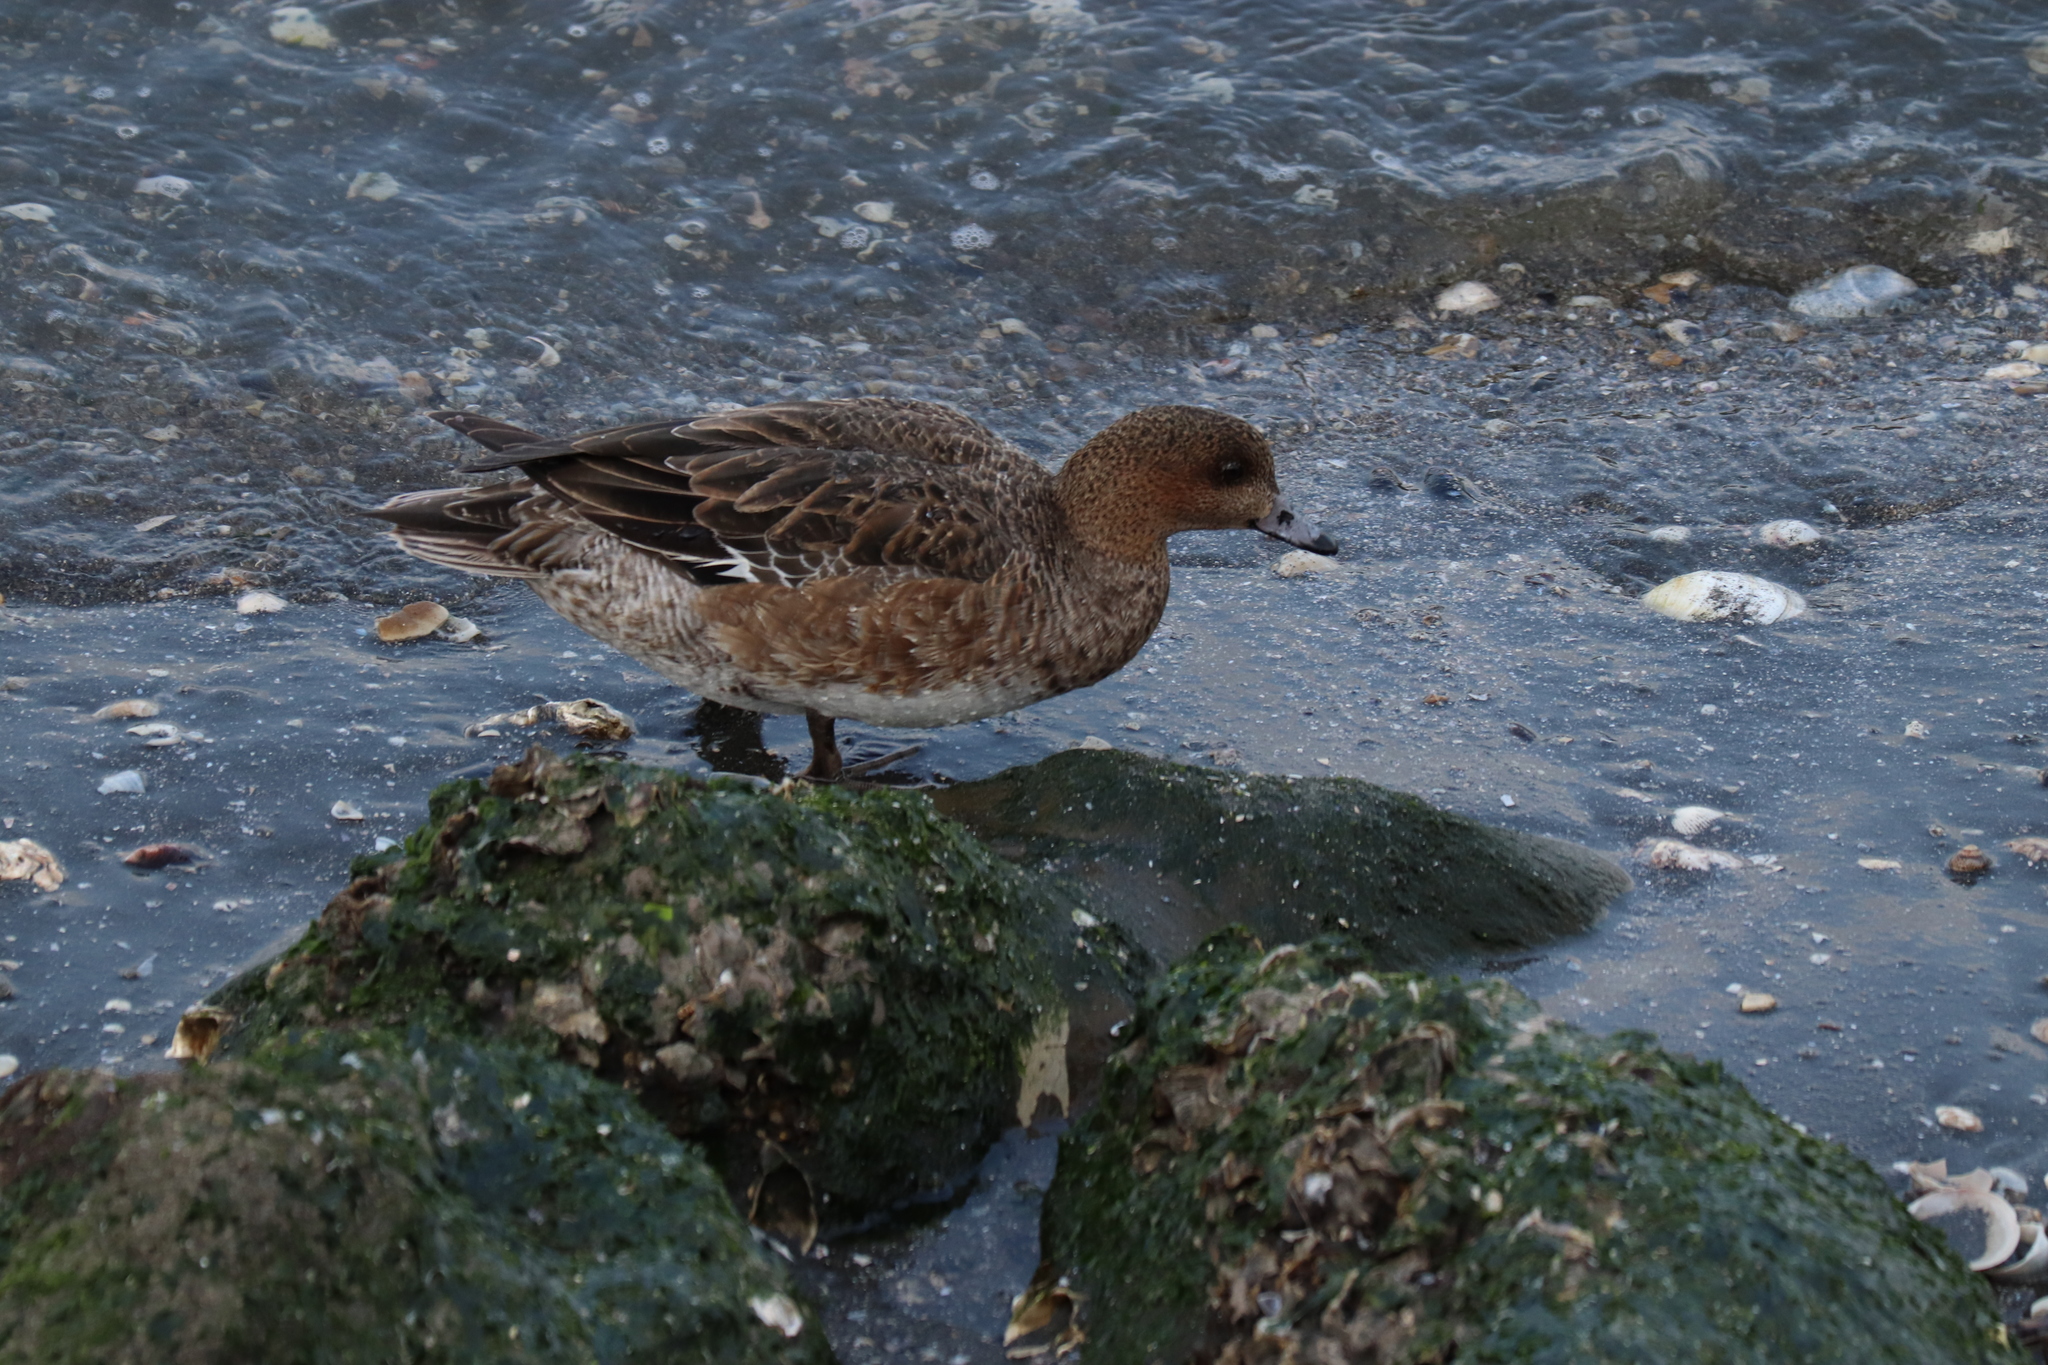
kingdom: Animalia
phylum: Chordata
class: Aves
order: Anseriformes
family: Anatidae
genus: Mareca
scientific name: Mareca penelope
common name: Eurasian wigeon
